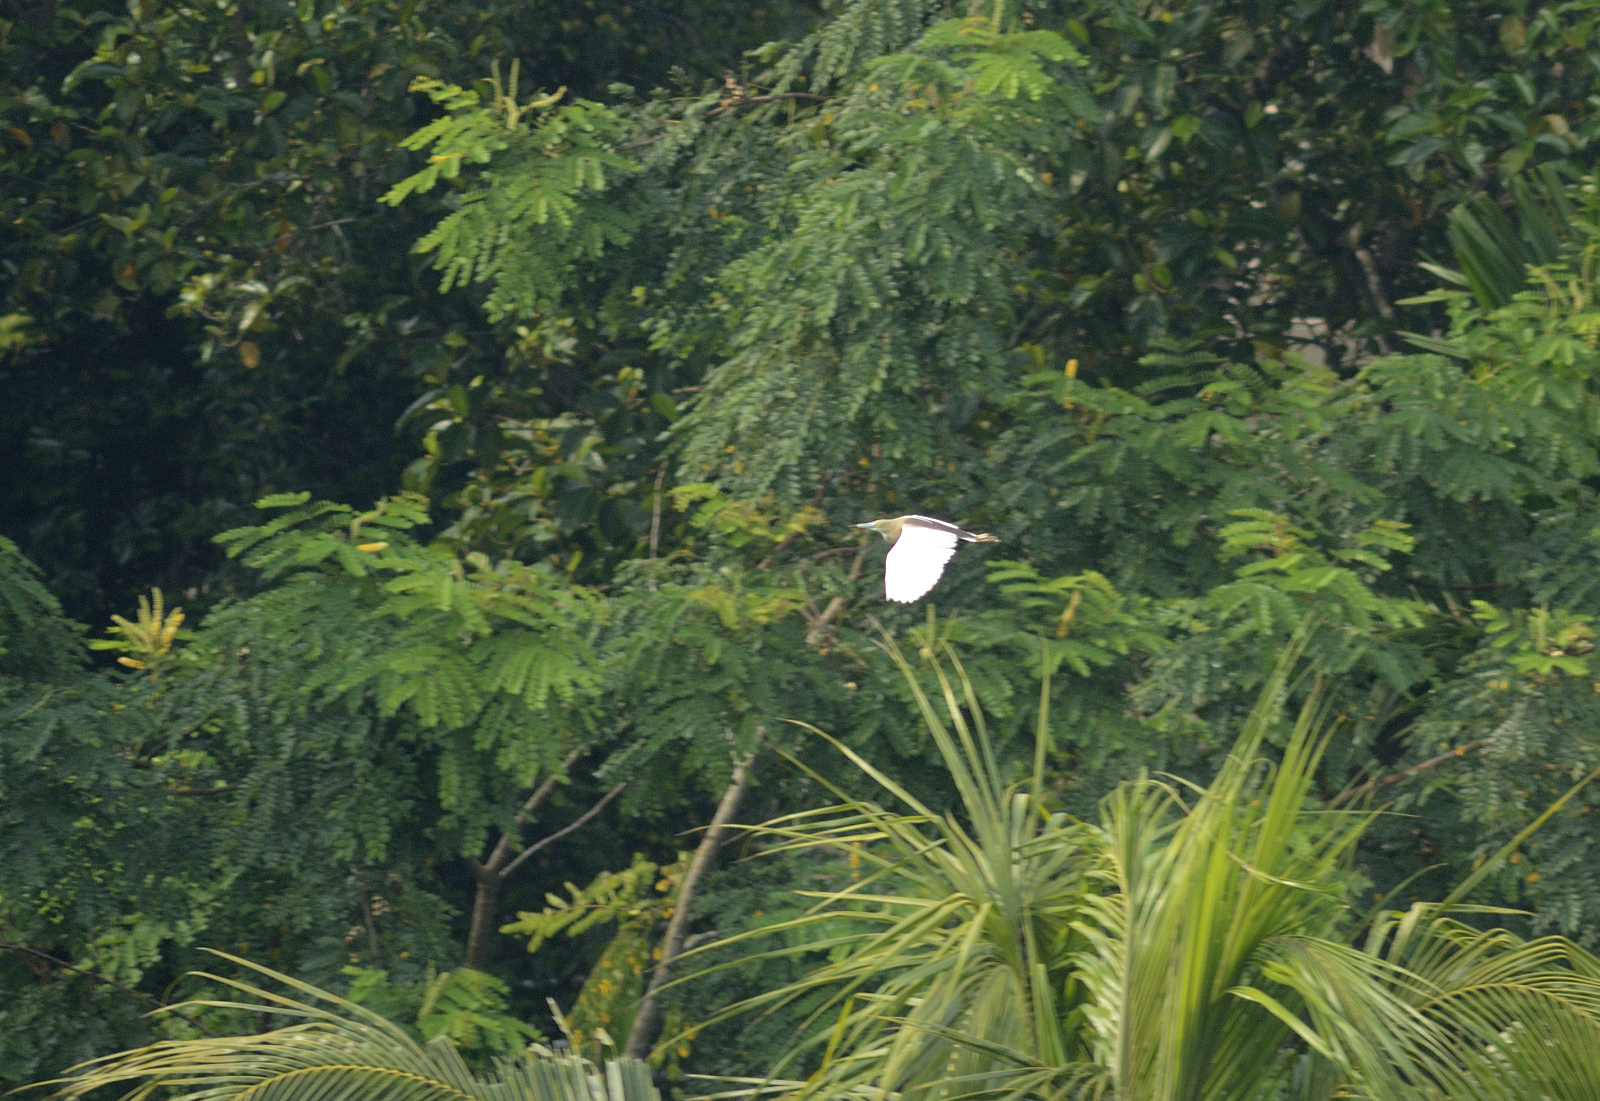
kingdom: Animalia
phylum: Chordata
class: Aves
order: Pelecaniformes
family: Ardeidae
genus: Ardeola
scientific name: Ardeola grayii
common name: Indian pond heron
